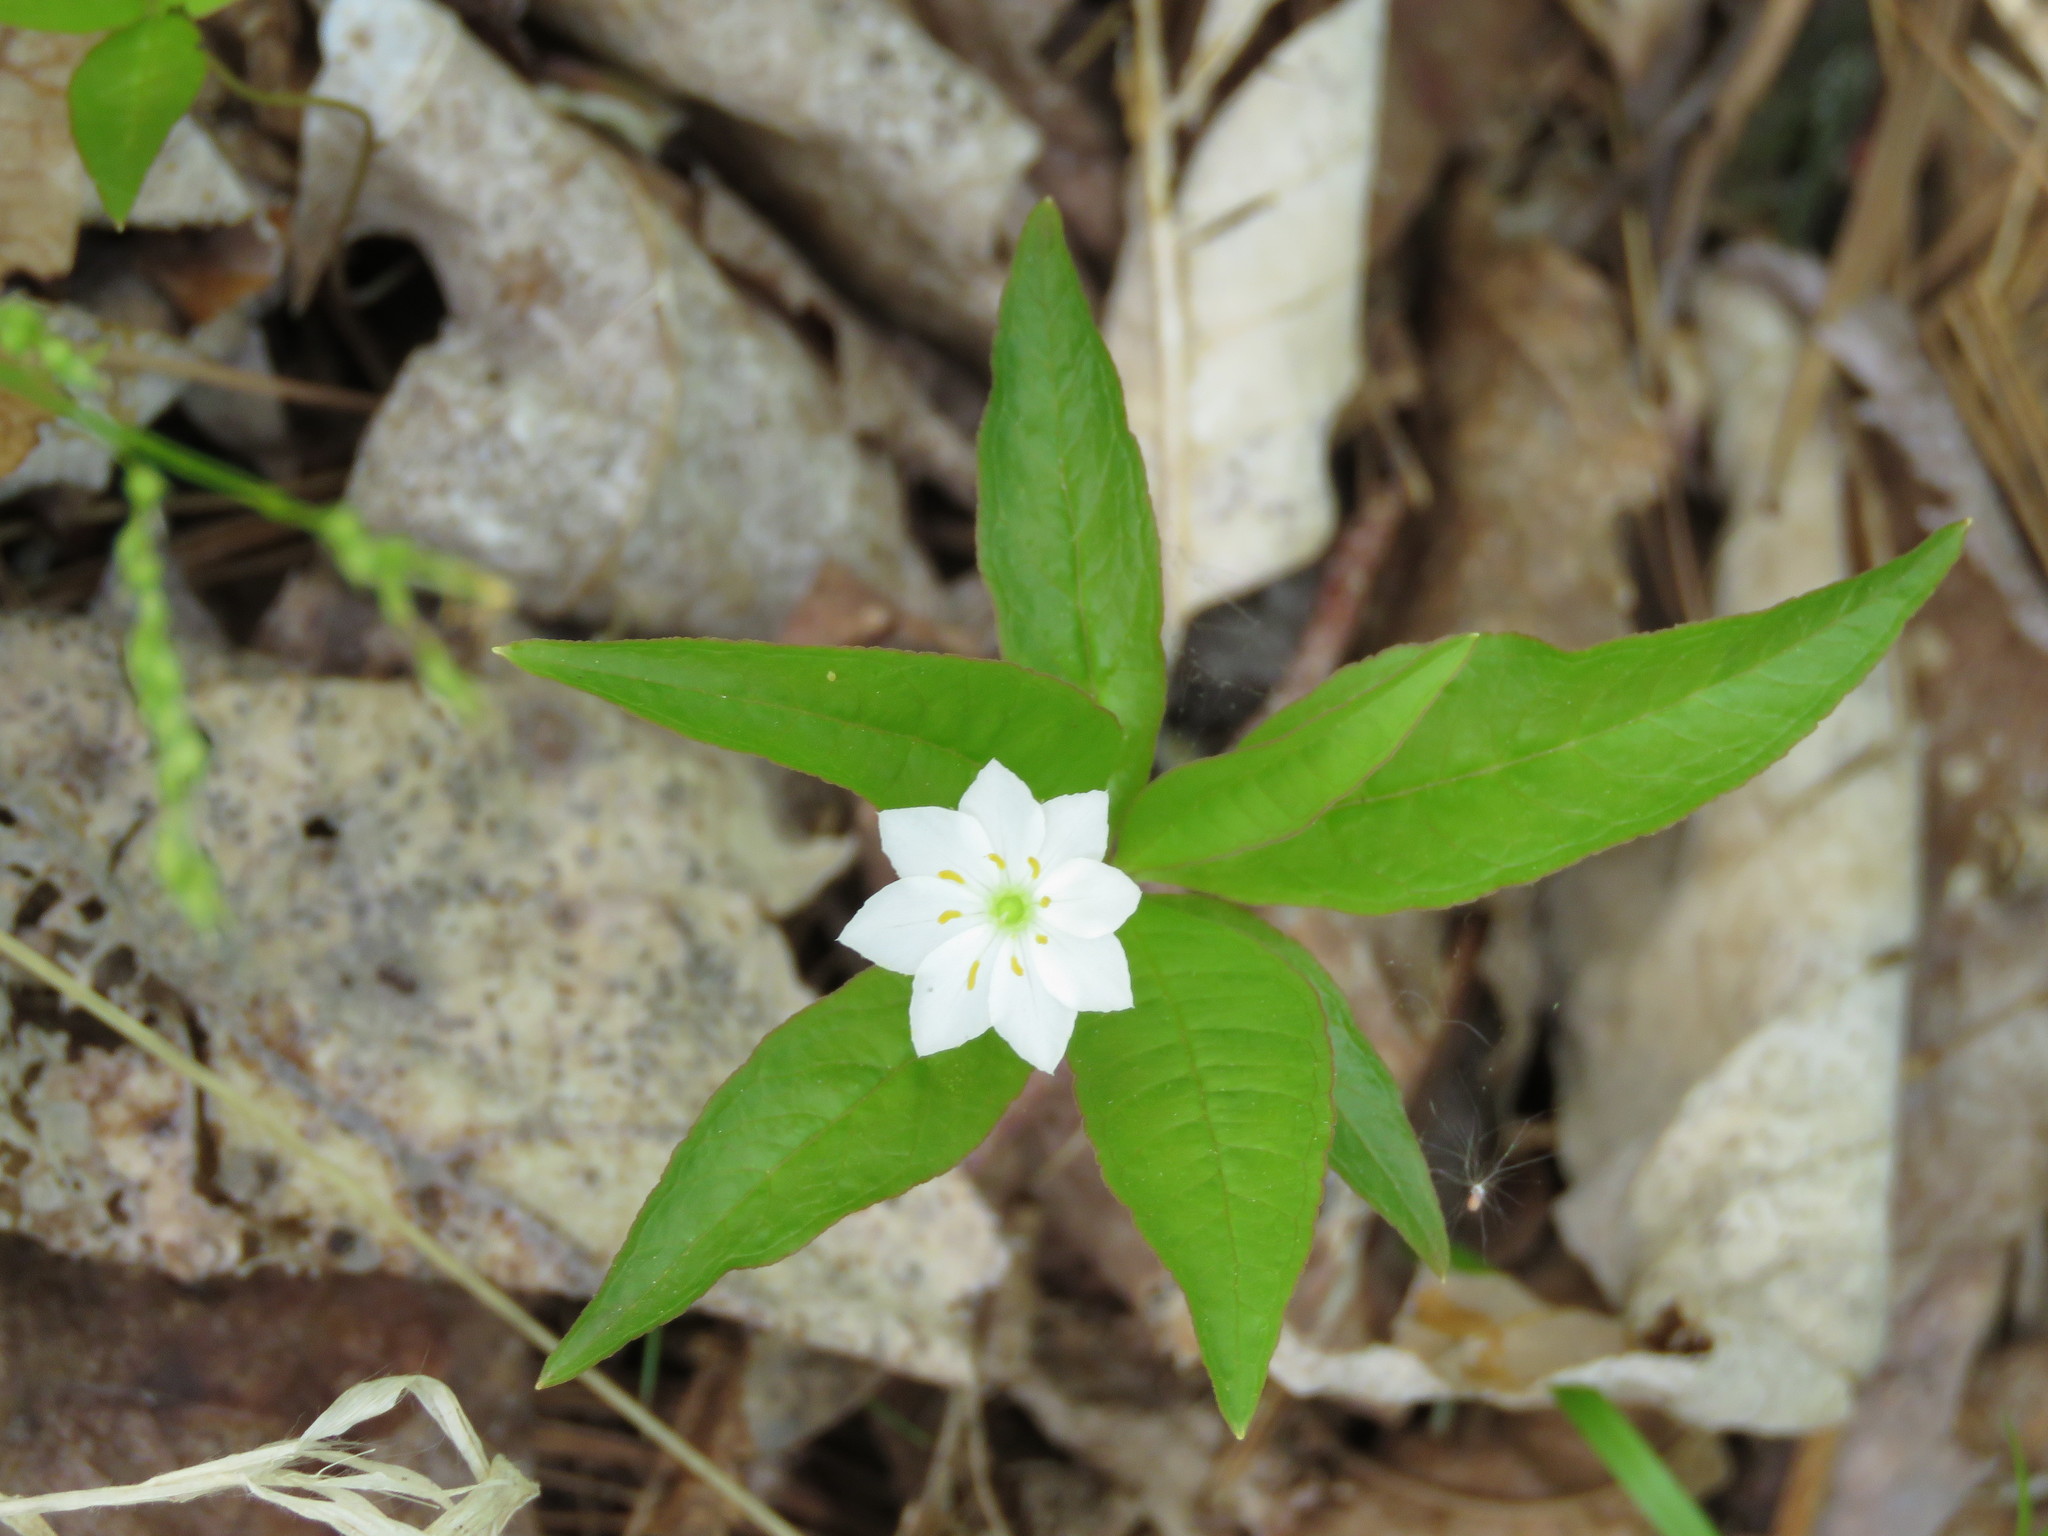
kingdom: Plantae
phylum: Tracheophyta
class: Magnoliopsida
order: Ericales
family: Primulaceae
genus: Lysimachia
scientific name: Lysimachia borealis
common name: American starflower
